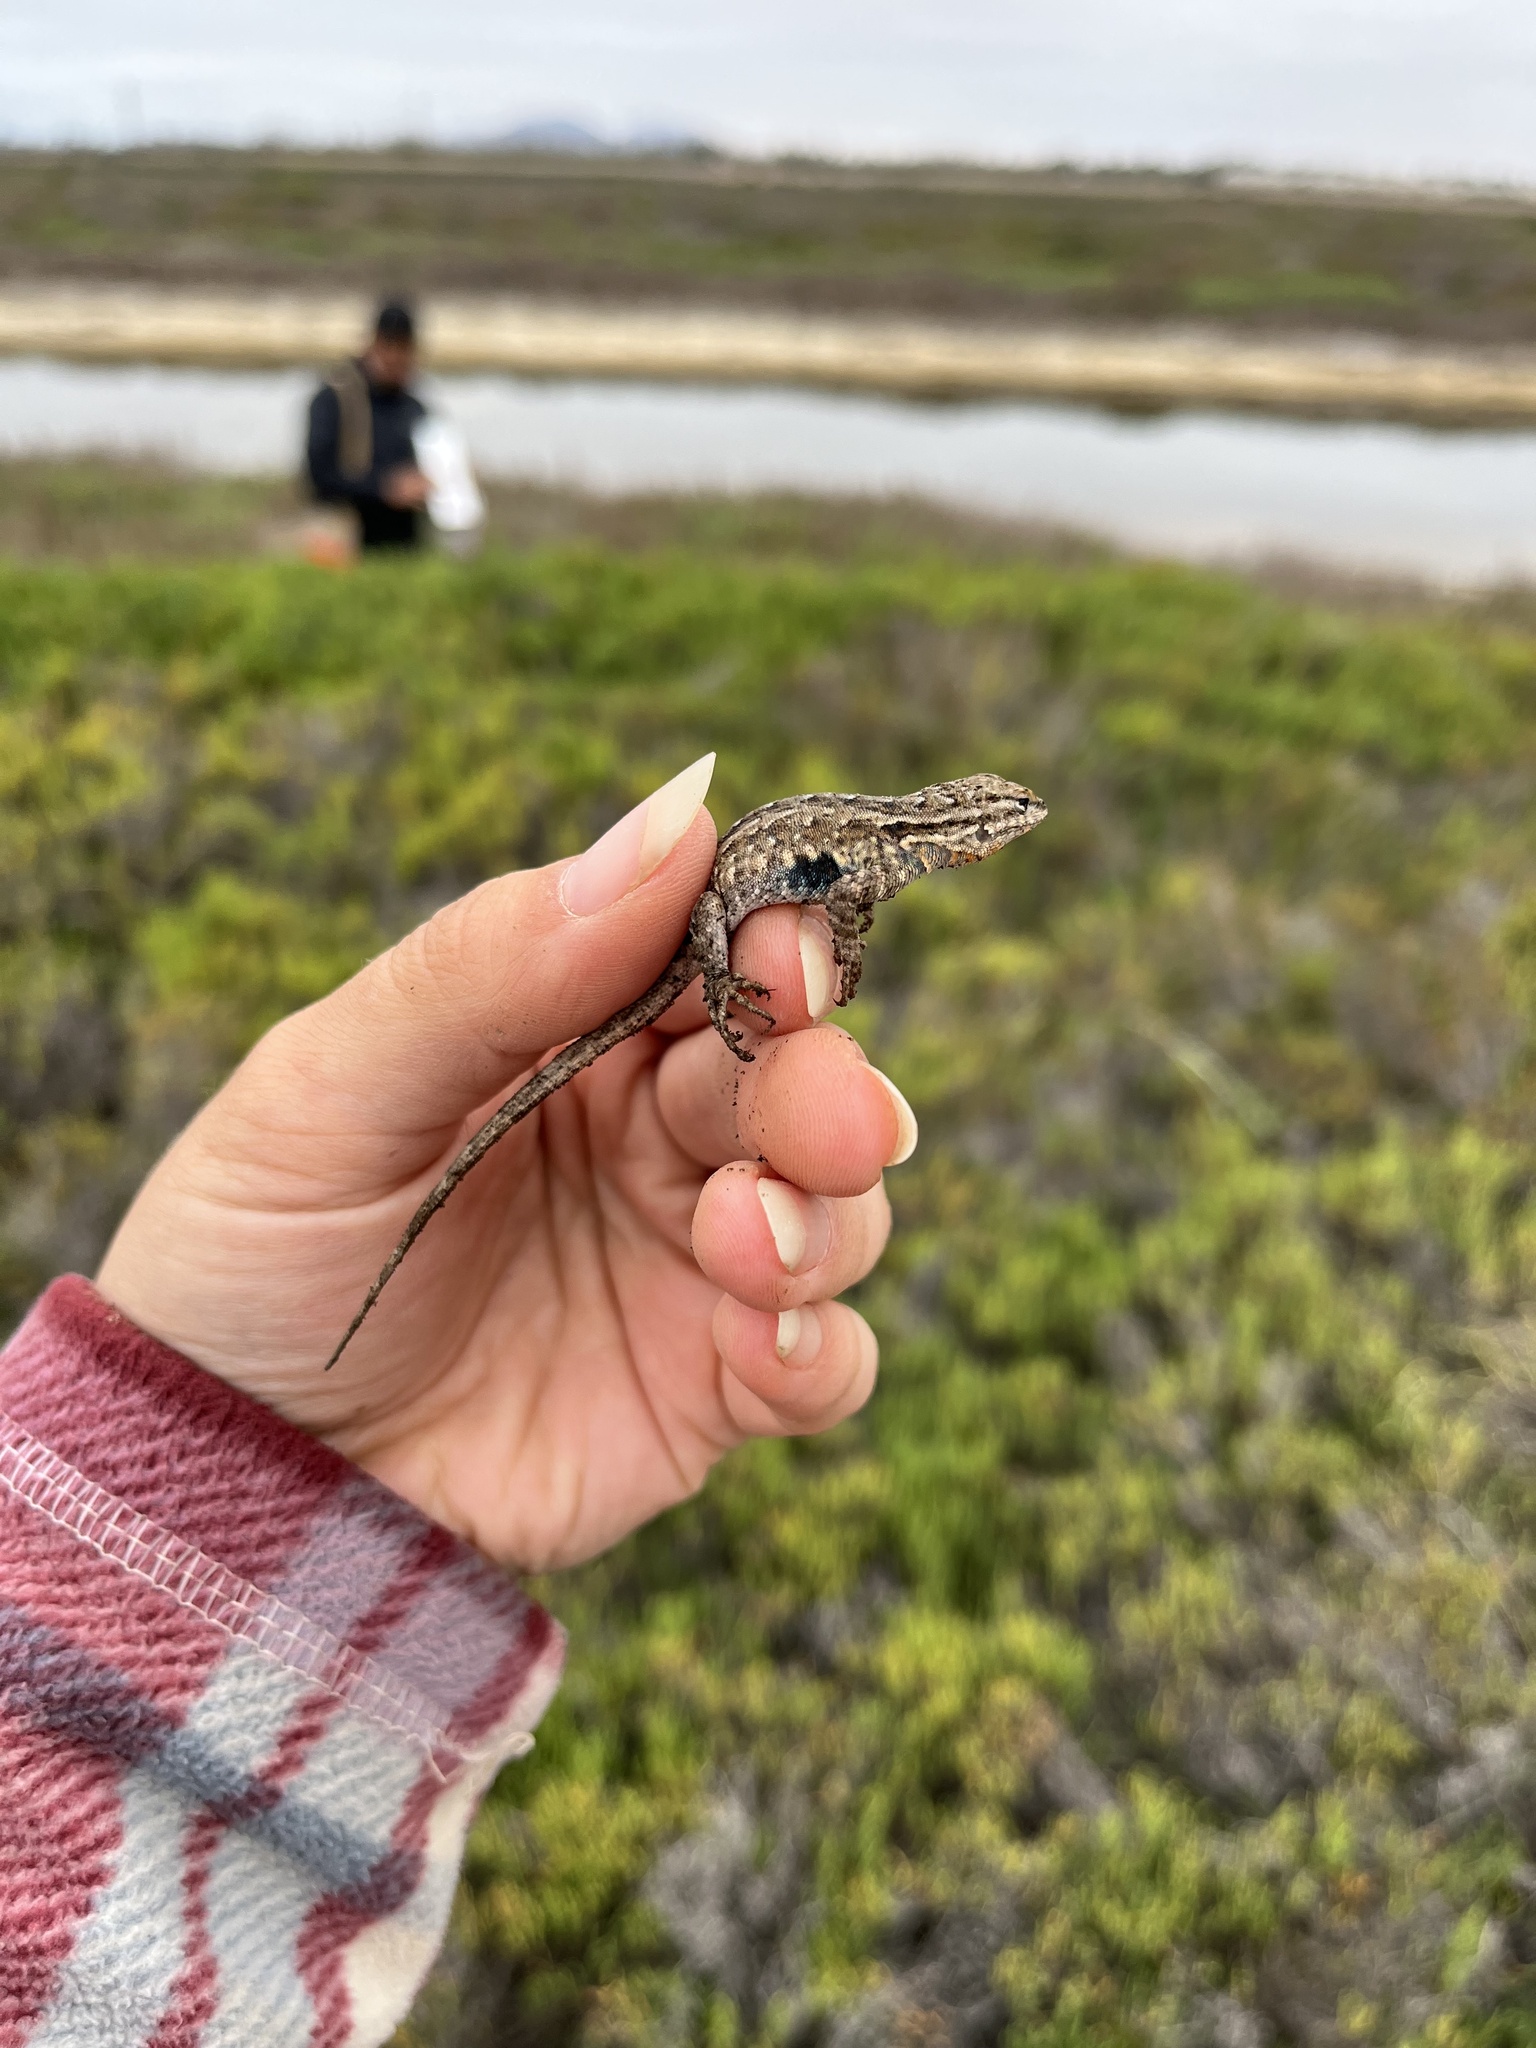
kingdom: Animalia
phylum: Chordata
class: Squamata
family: Phrynosomatidae
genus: Uta
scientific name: Uta stansburiana
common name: Side-blotched lizard
